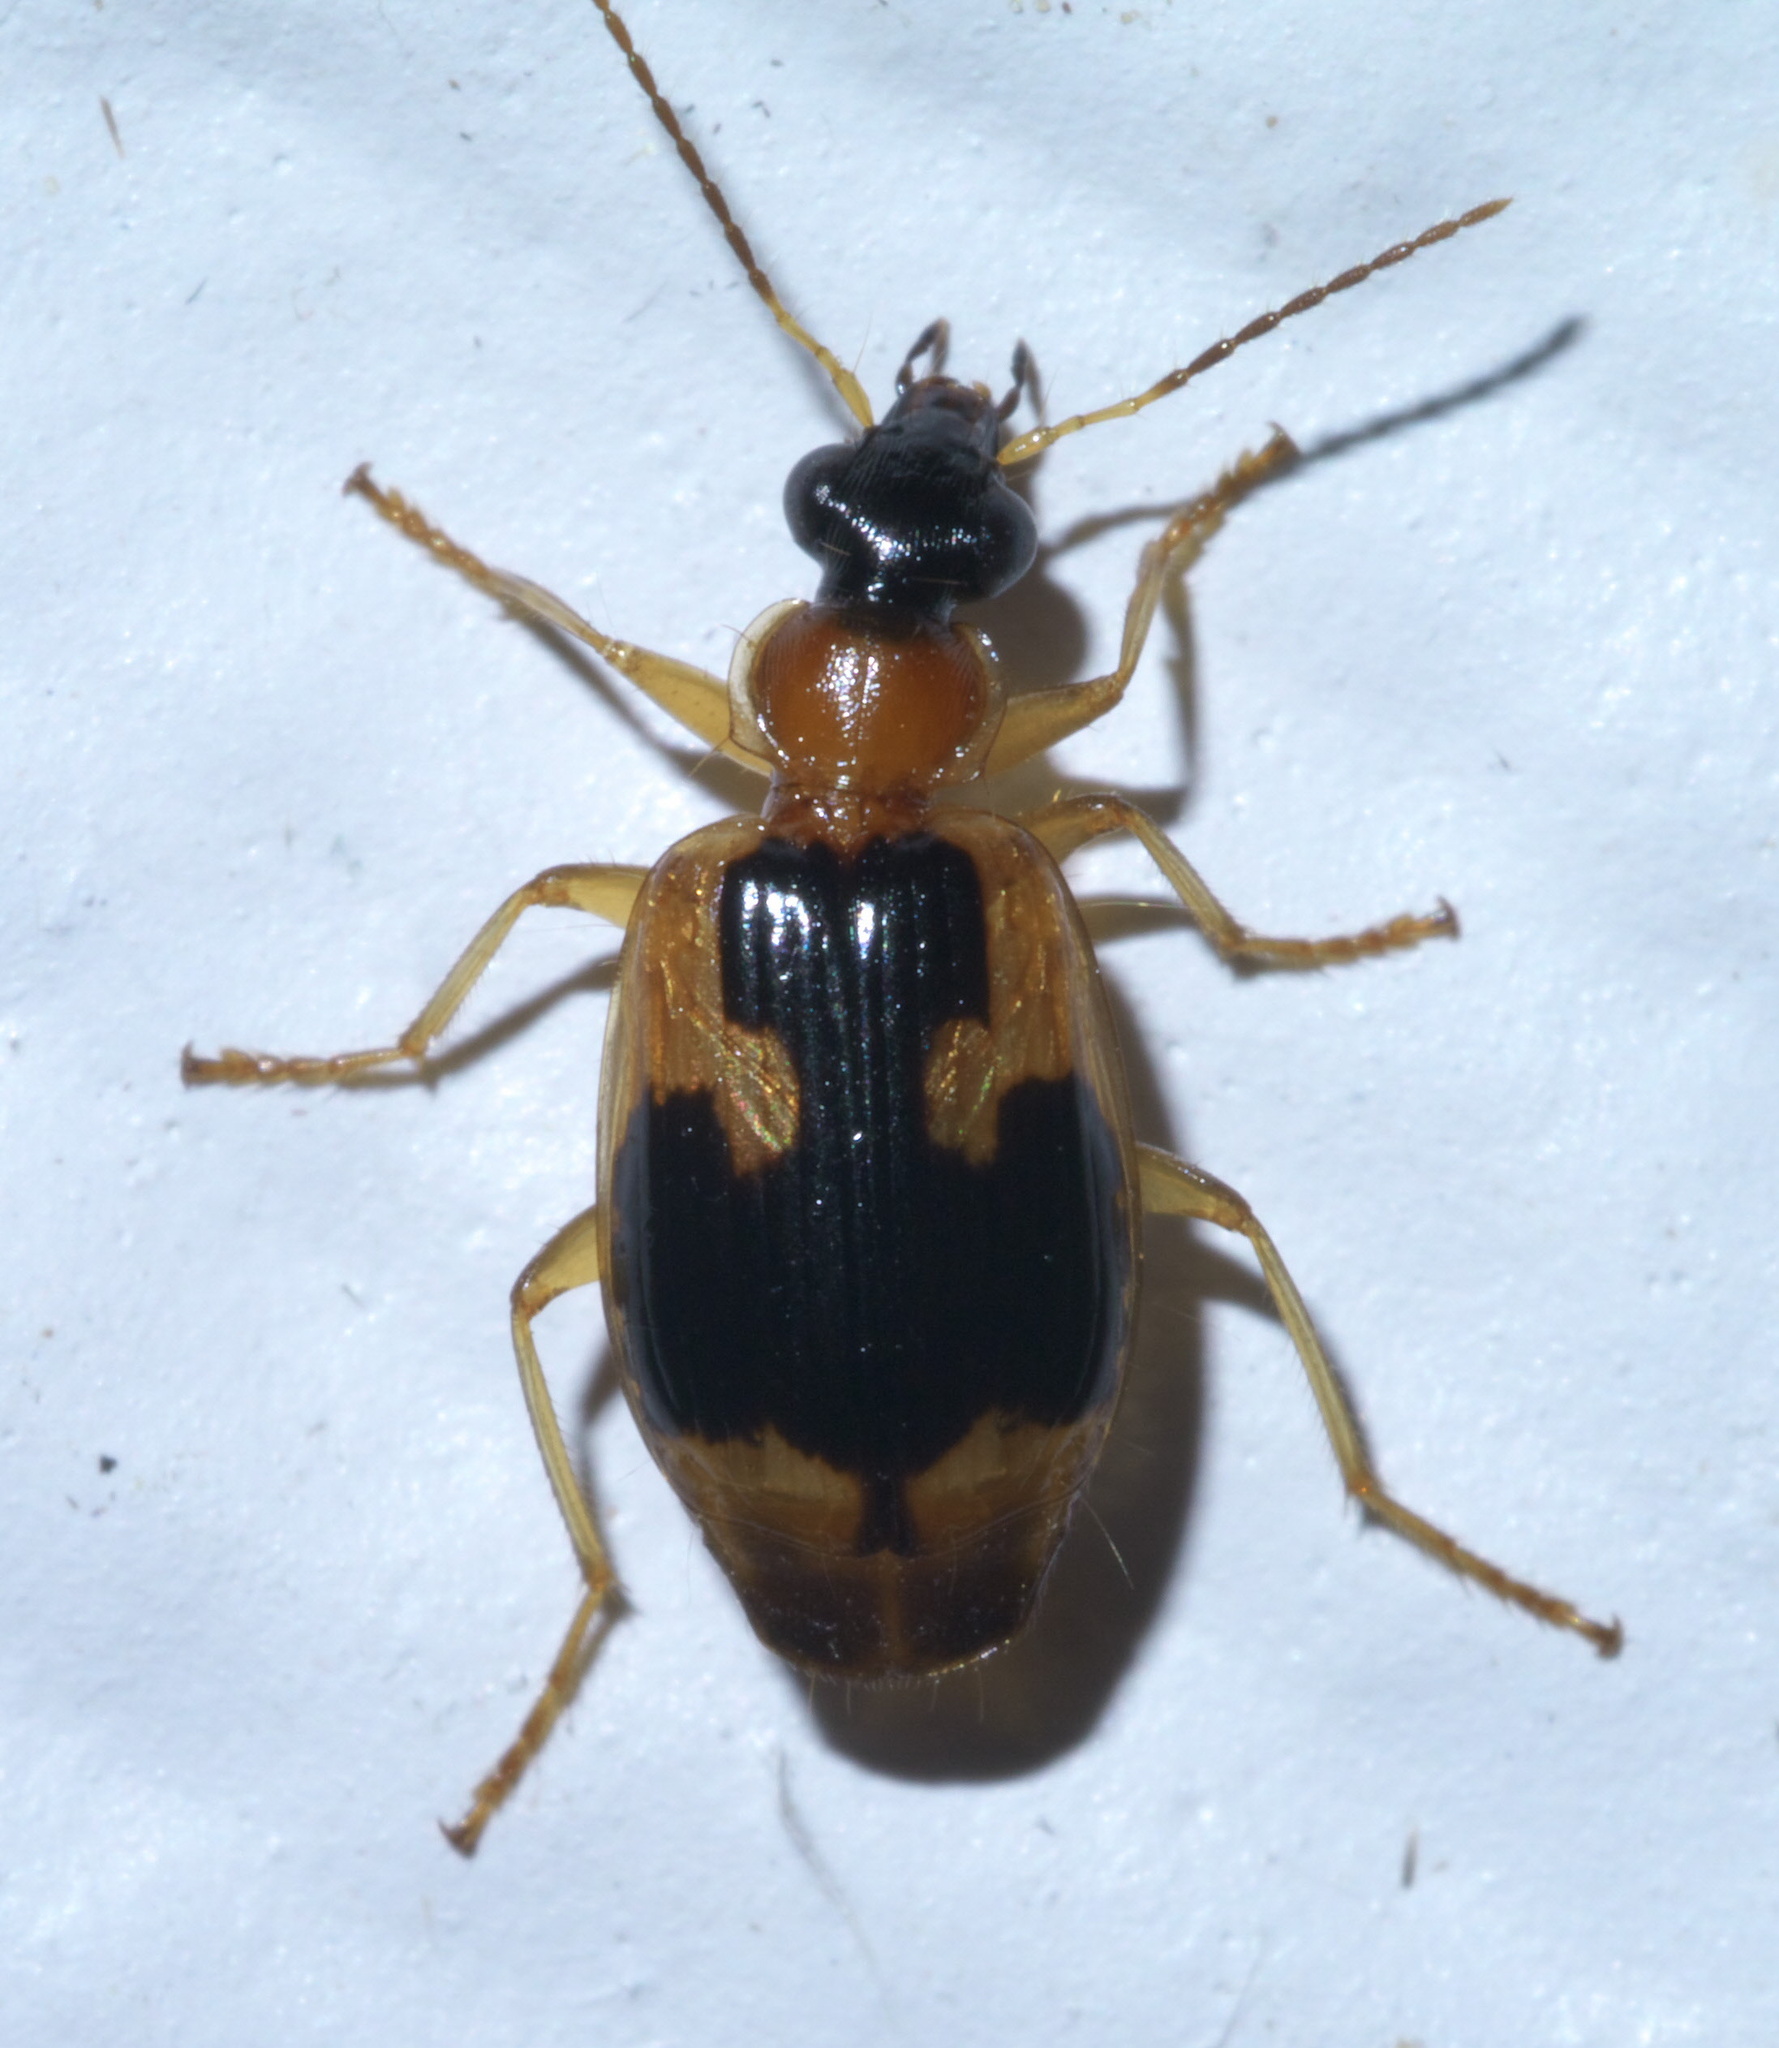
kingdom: Animalia
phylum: Arthropoda
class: Insecta
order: Coleoptera
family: Carabidae
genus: Lebia
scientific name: Lebia analis
